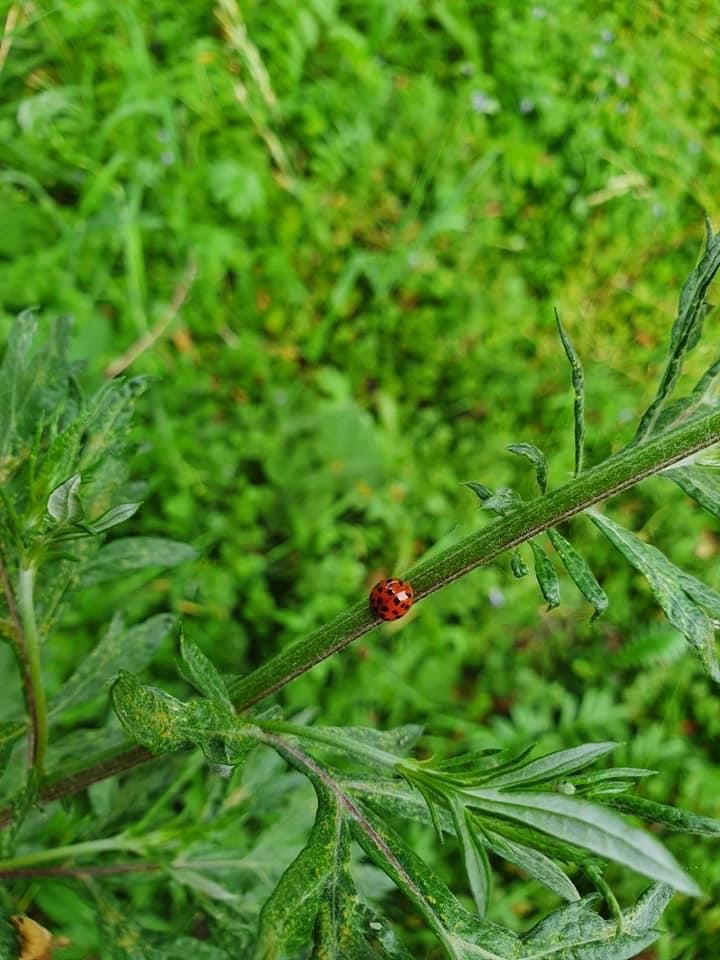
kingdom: Animalia
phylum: Arthropoda
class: Insecta
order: Coleoptera
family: Coccinellidae
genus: Harmonia
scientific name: Harmonia axyridis
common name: Harlequin ladybird
